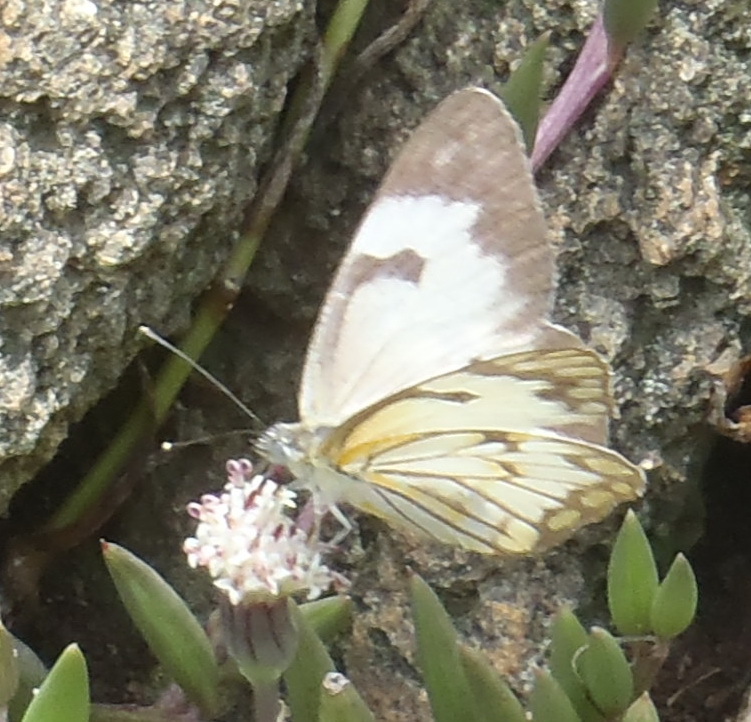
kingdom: Animalia
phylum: Arthropoda
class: Insecta
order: Lepidoptera
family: Pieridae
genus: Belenois
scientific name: Belenois aurota
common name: Brown-veined white
